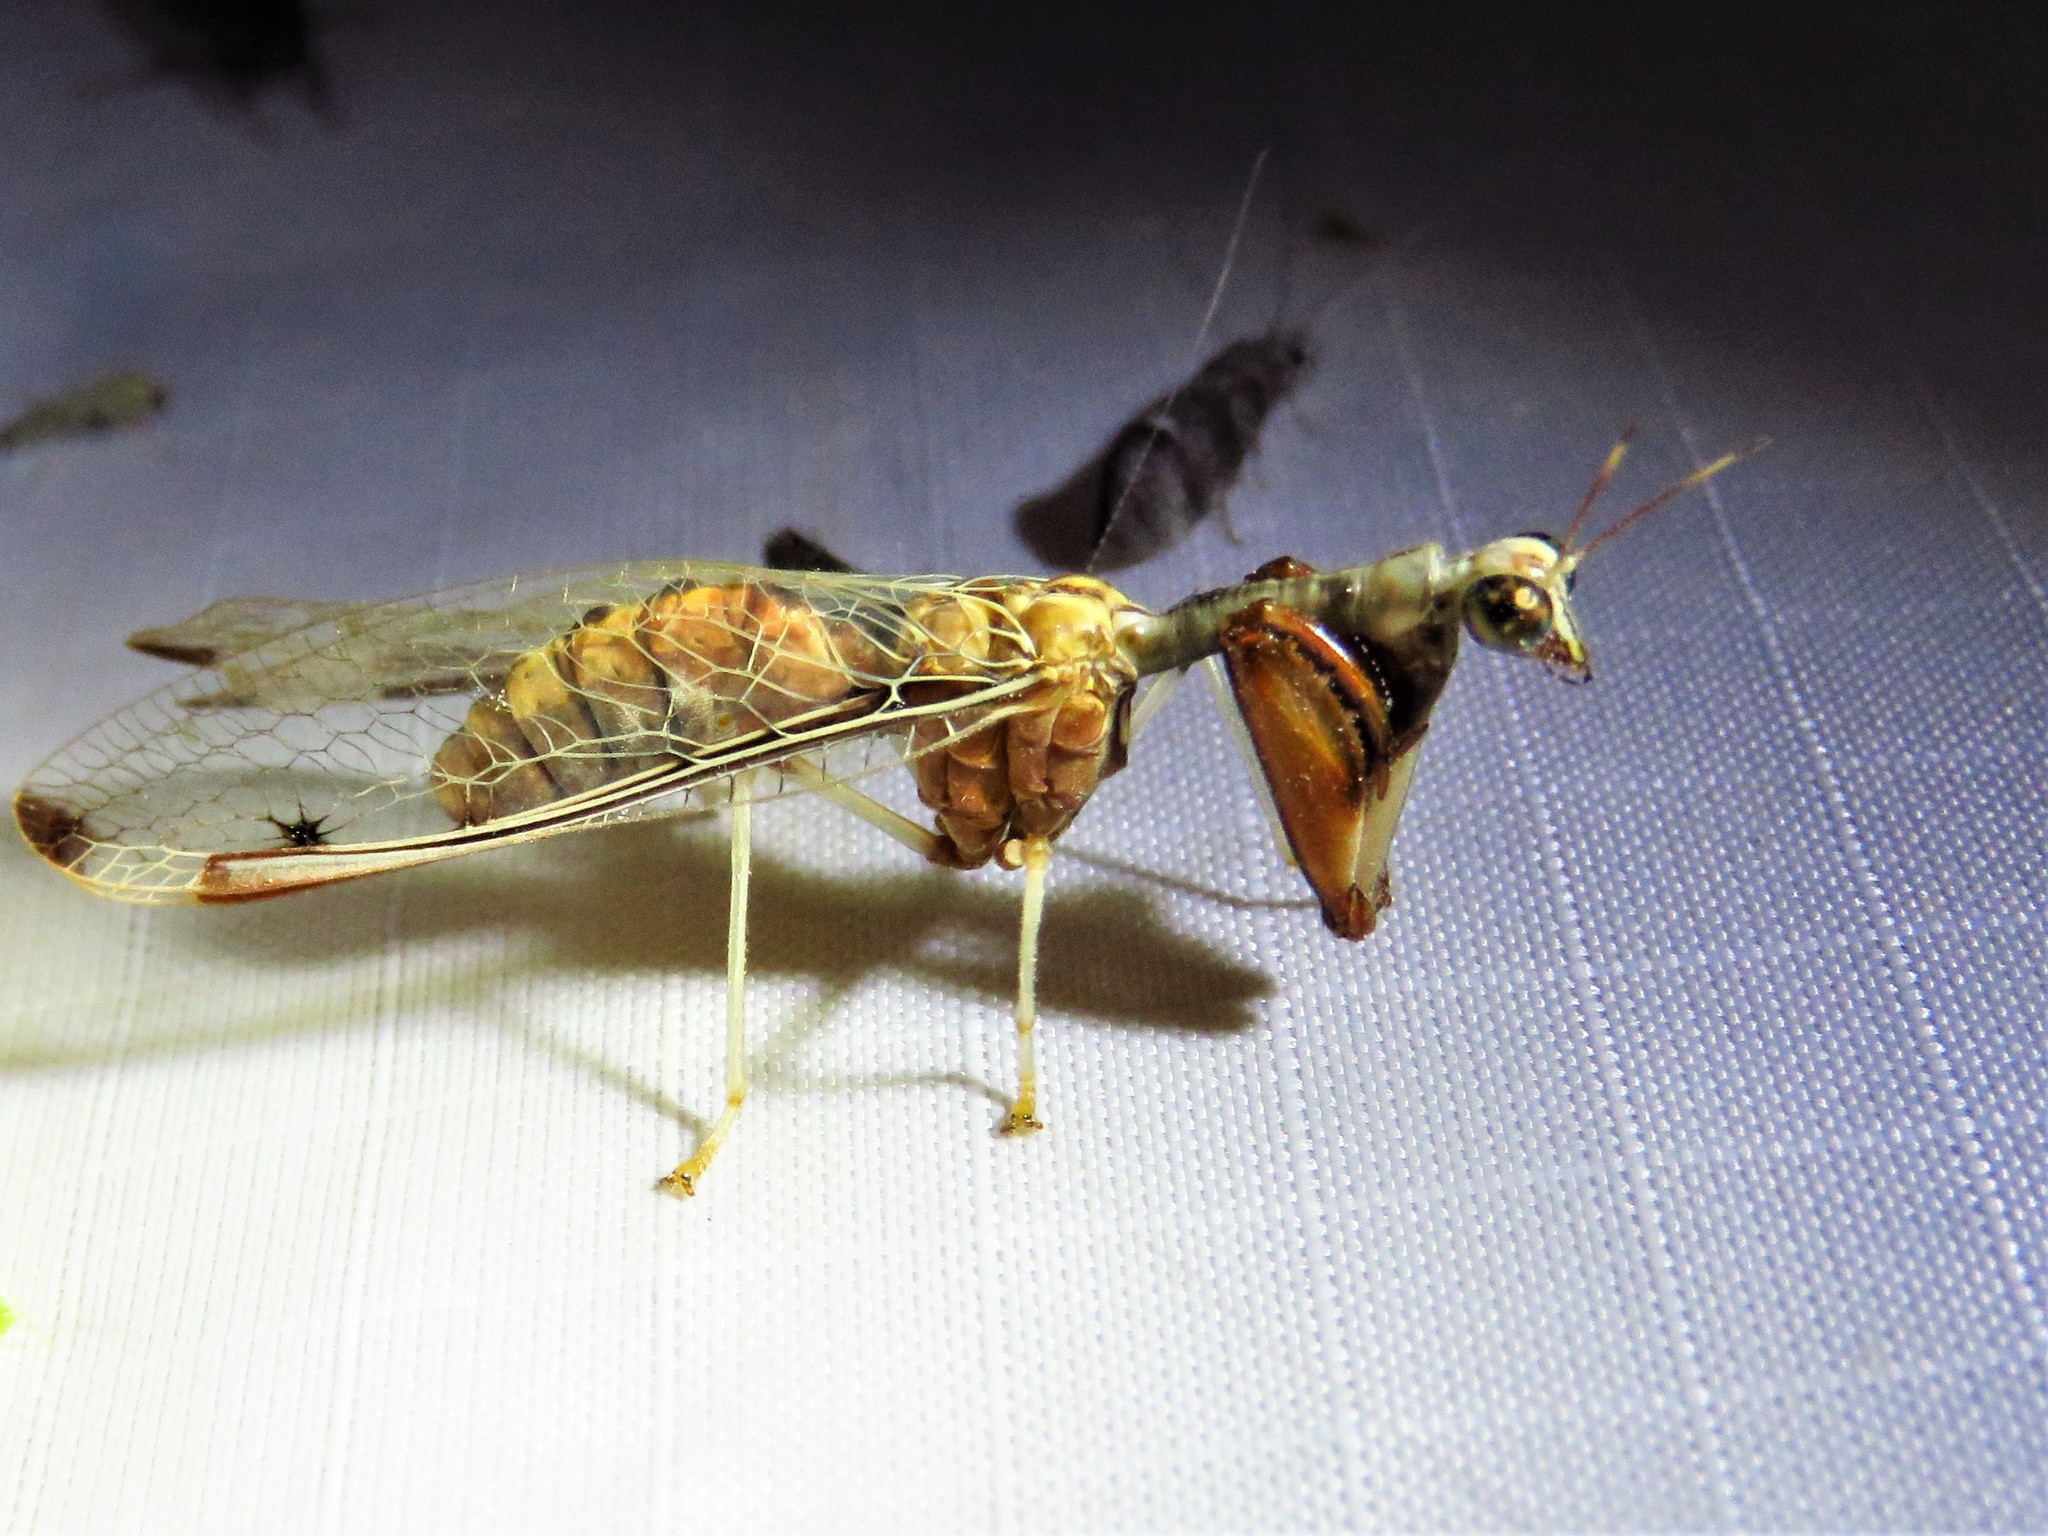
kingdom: Animalia
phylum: Arthropoda
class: Insecta
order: Neuroptera
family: Mantispidae
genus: Dicromantispa
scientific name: Dicromantispa interrupta
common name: Four-spotted mantidfly
